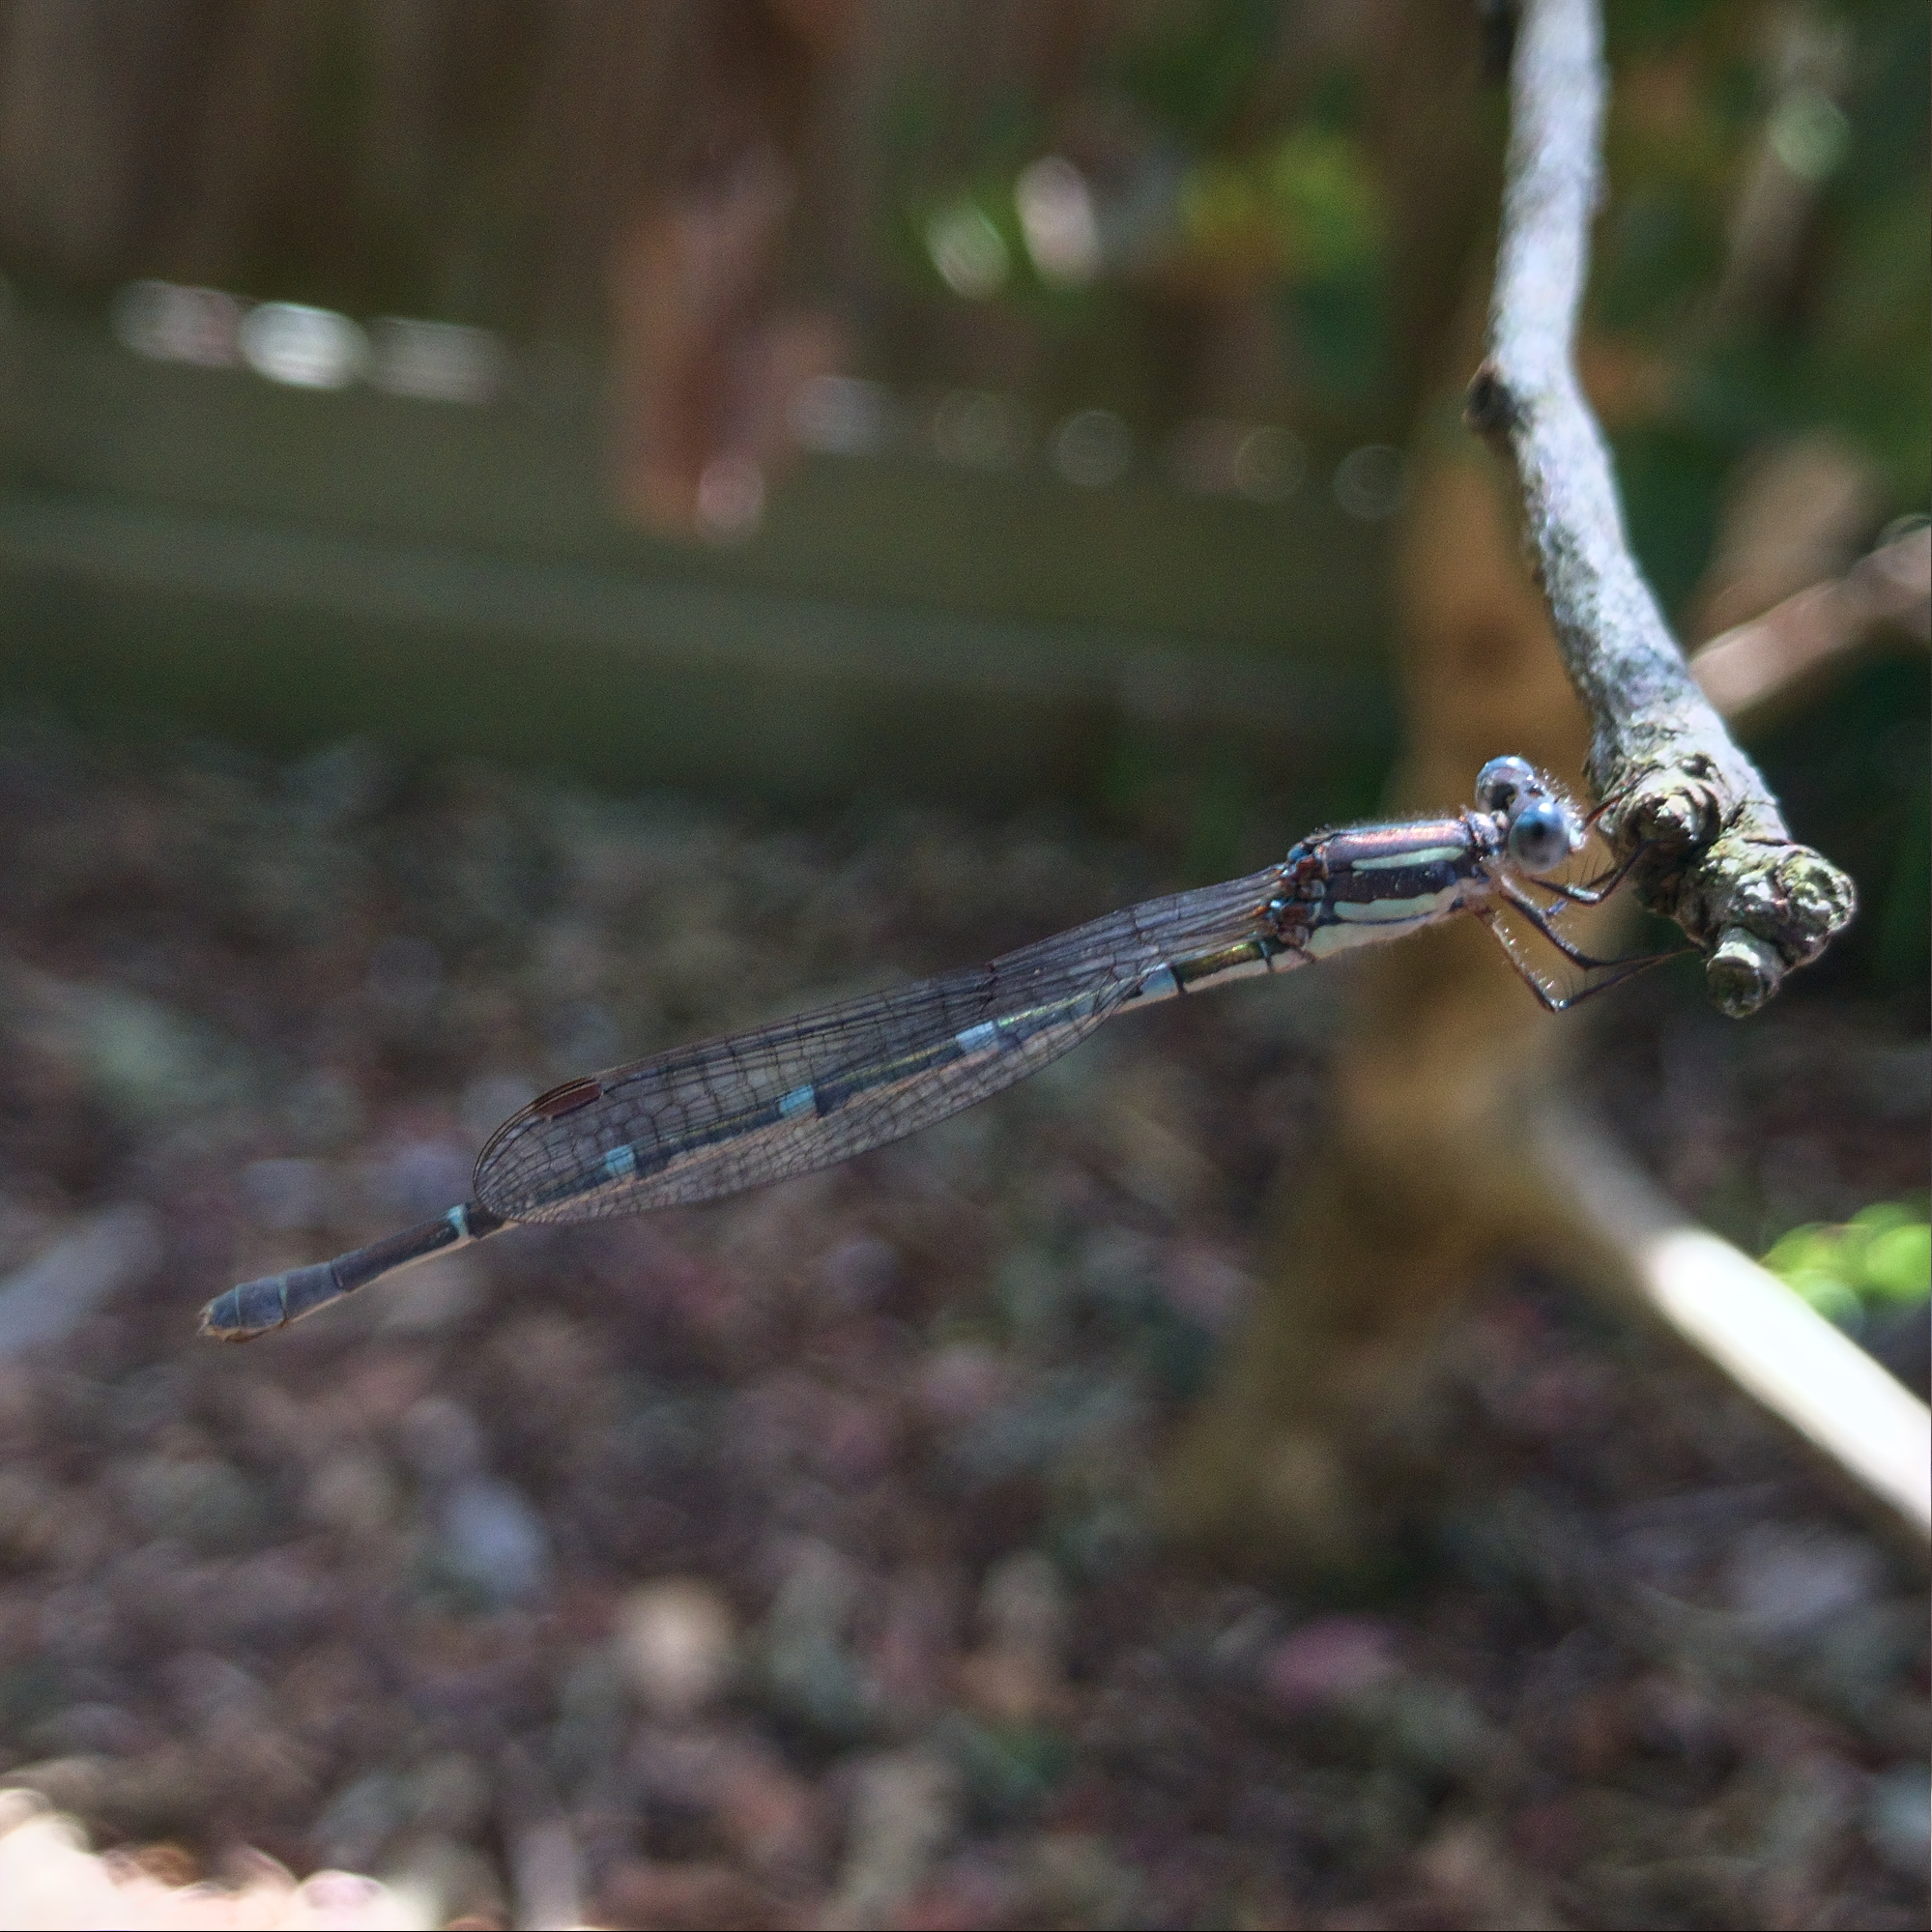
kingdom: Animalia
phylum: Arthropoda
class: Insecta
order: Odonata
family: Lestidae
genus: Austrolestes
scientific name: Austrolestes leda
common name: Wandering ringtail
